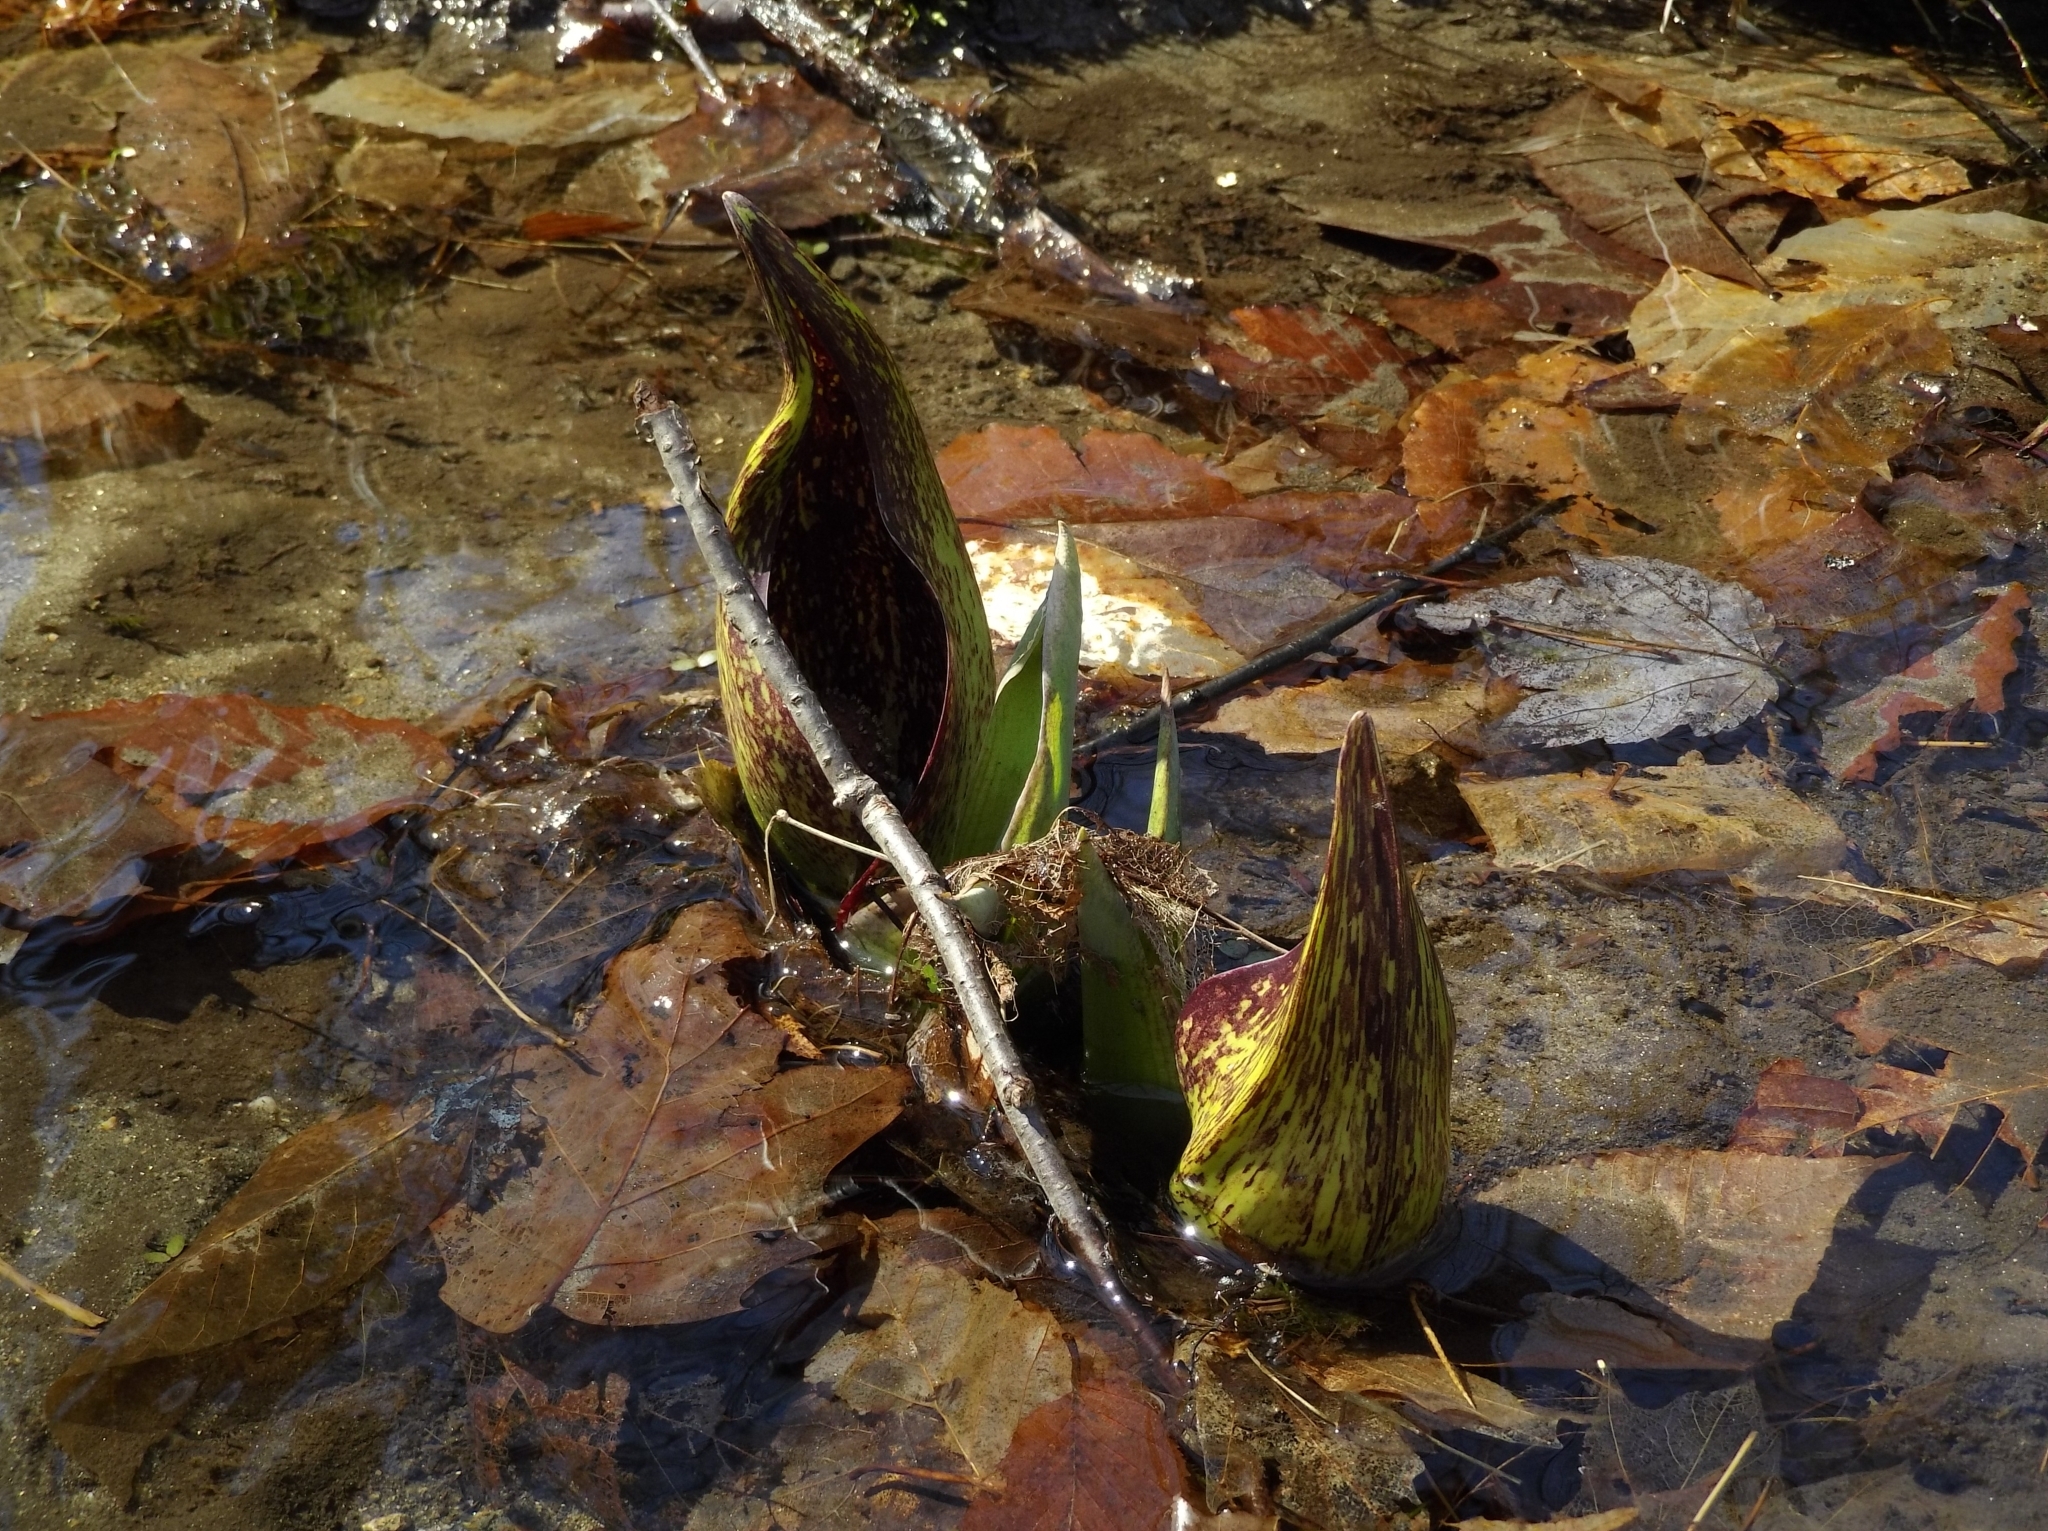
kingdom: Plantae
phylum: Tracheophyta
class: Liliopsida
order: Alismatales
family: Araceae
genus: Symplocarpus
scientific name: Symplocarpus foetidus
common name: Eastern skunk cabbage
